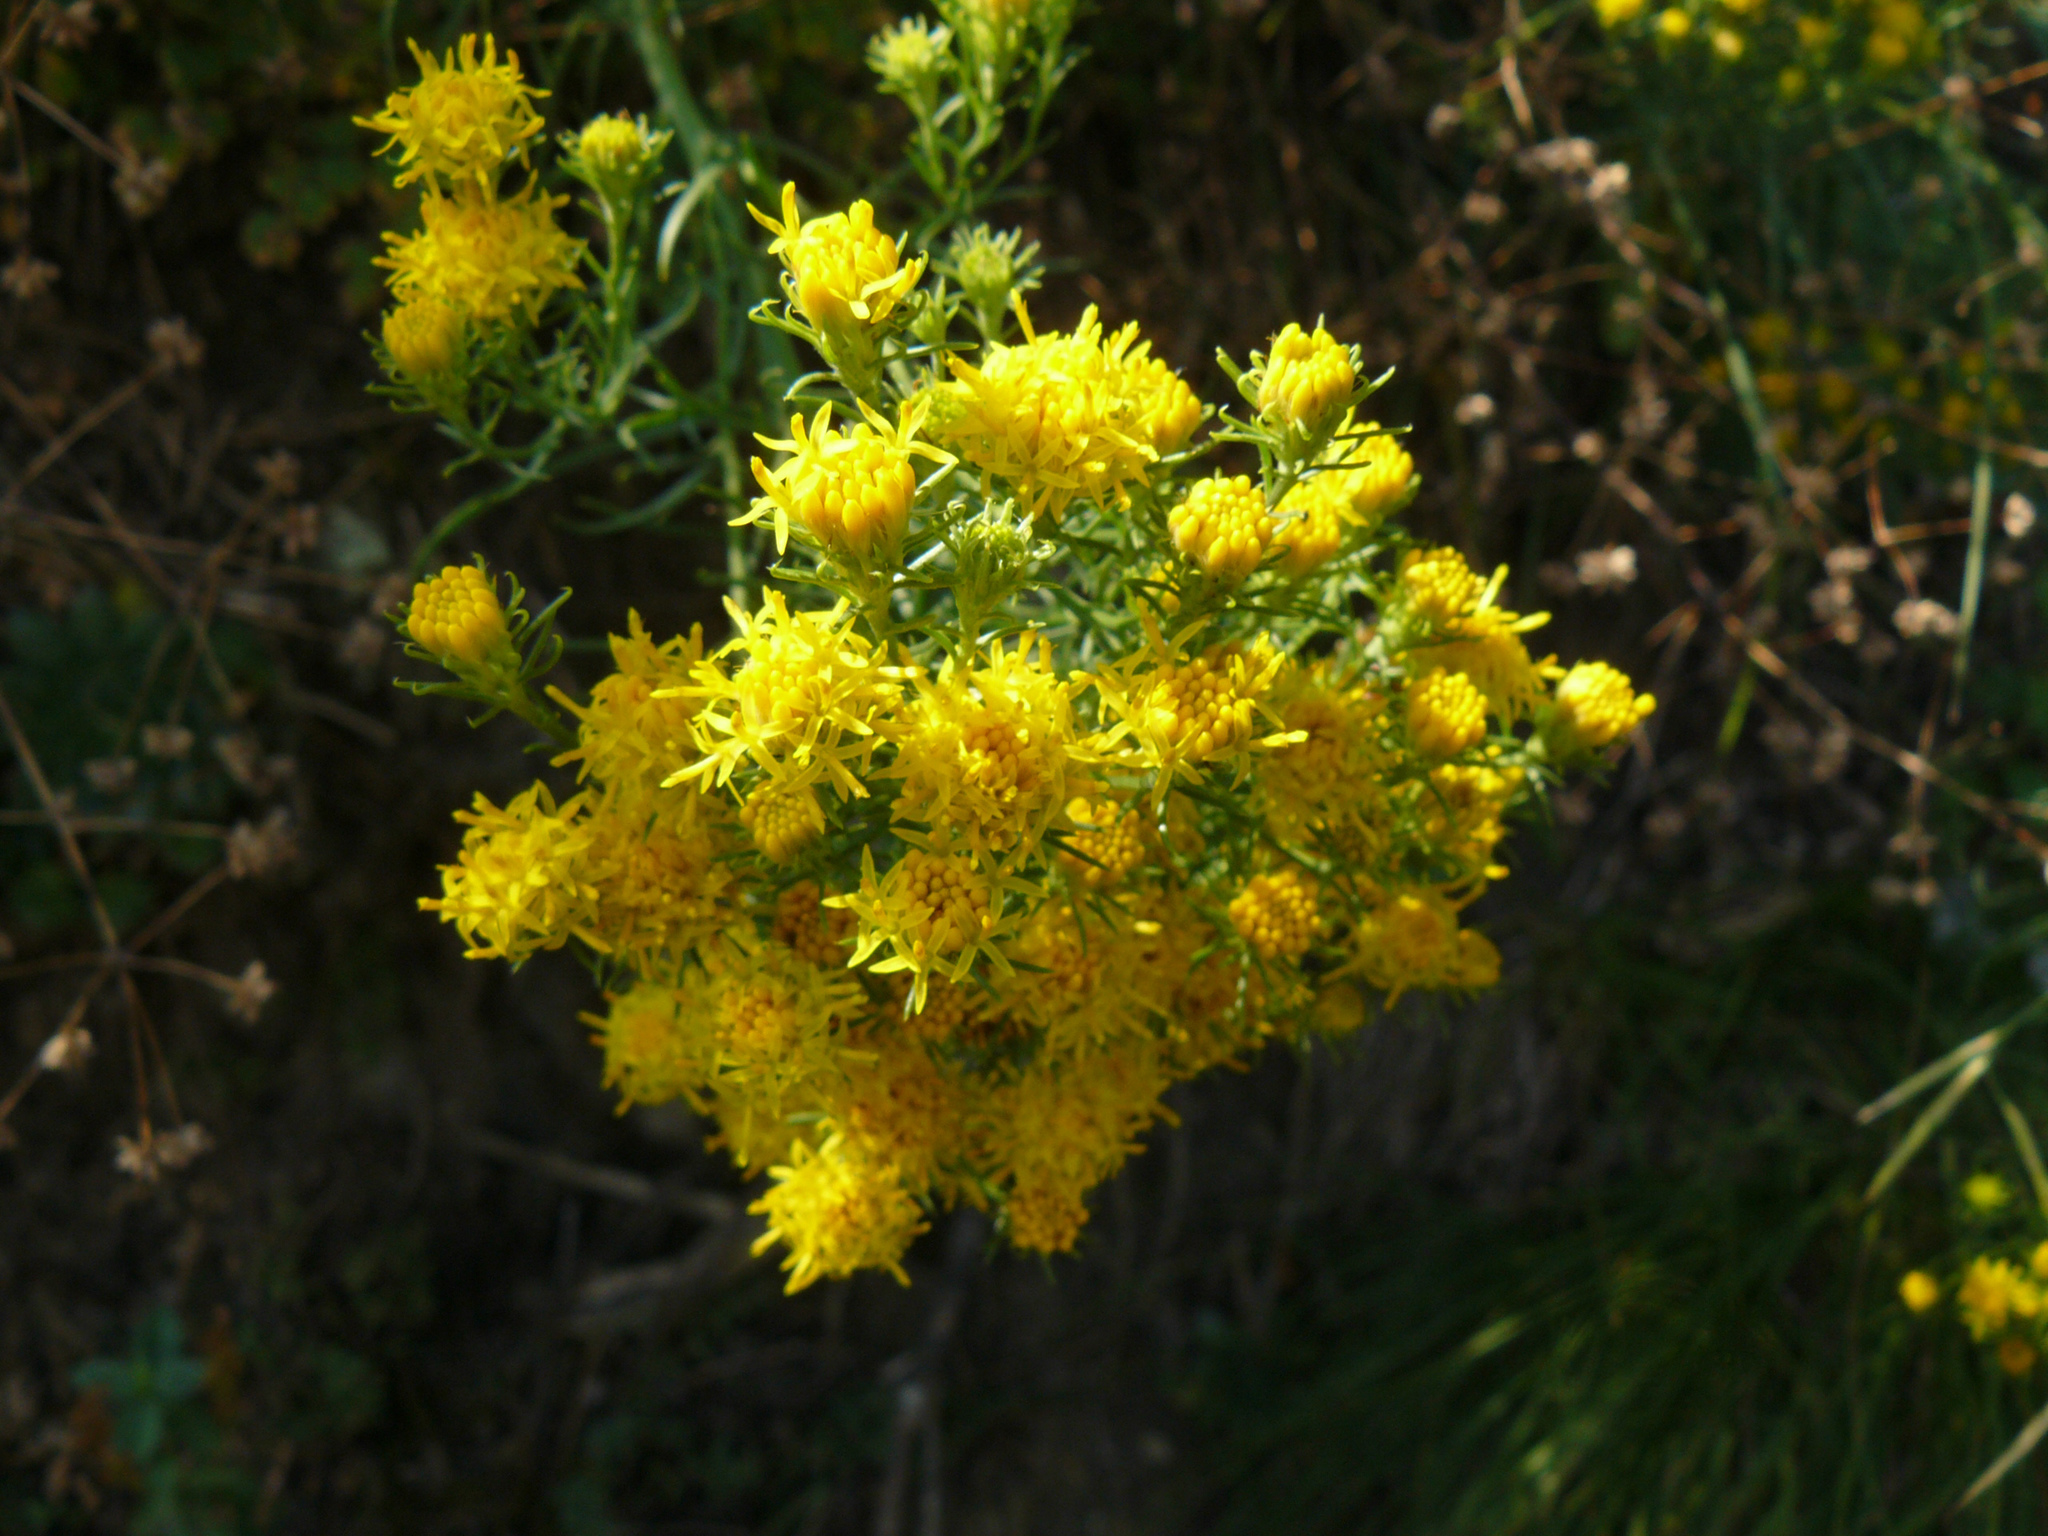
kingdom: Plantae
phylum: Tracheophyta
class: Magnoliopsida
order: Asterales
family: Asteraceae
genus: Galatella
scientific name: Galatella linosyris
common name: Goldilocks aster
